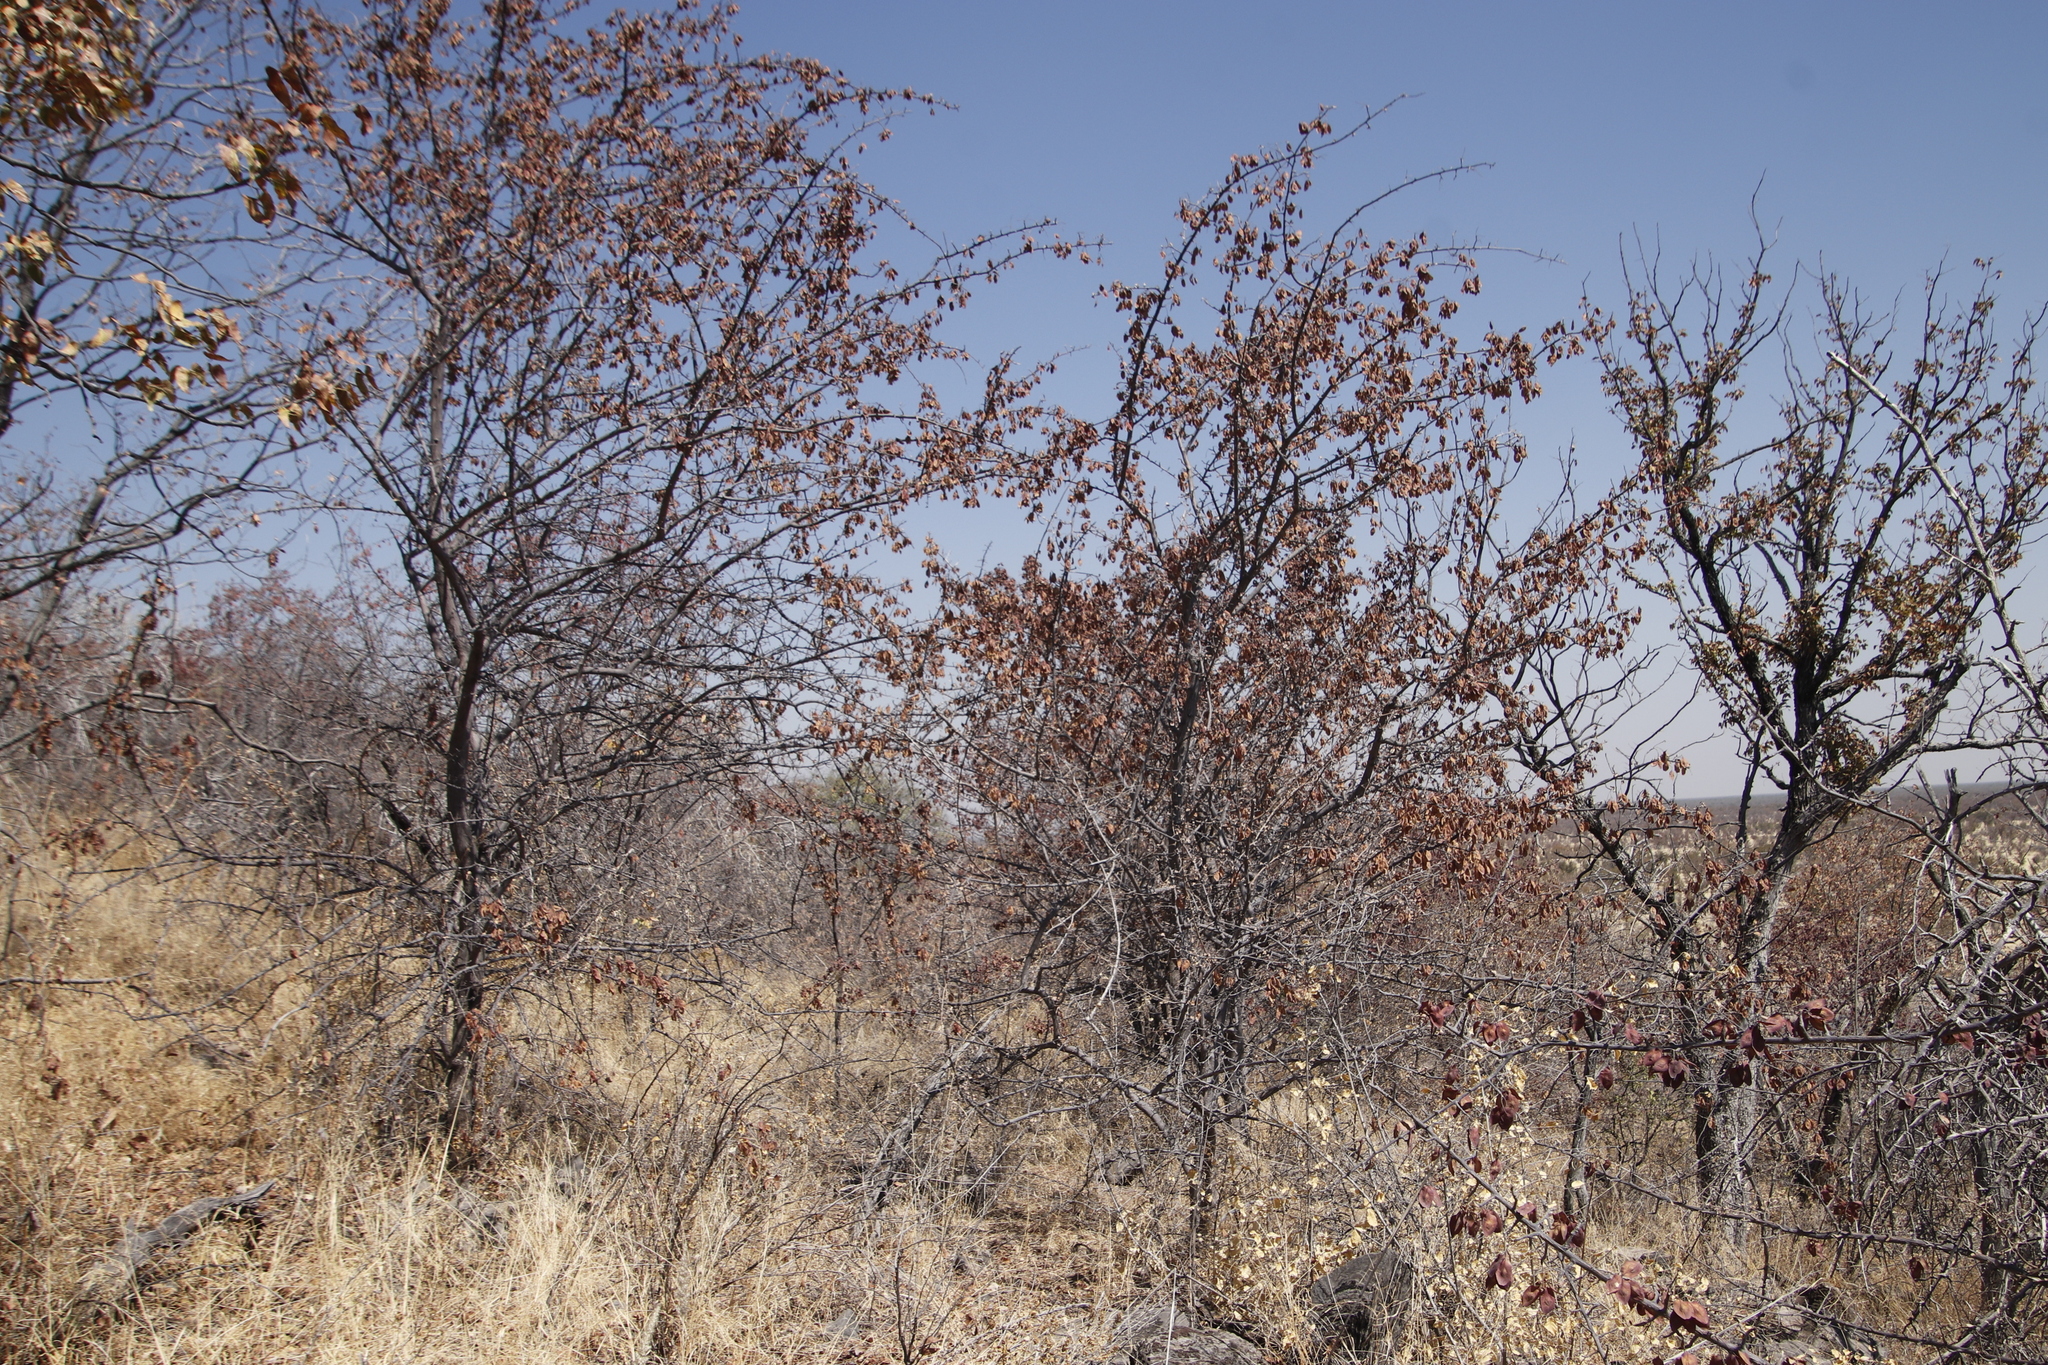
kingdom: Plantae
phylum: Tracheophyta
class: Magnoliopsida
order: Myrtales
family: Combretaceae
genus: Terminalia
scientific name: Terminalia prunioides
